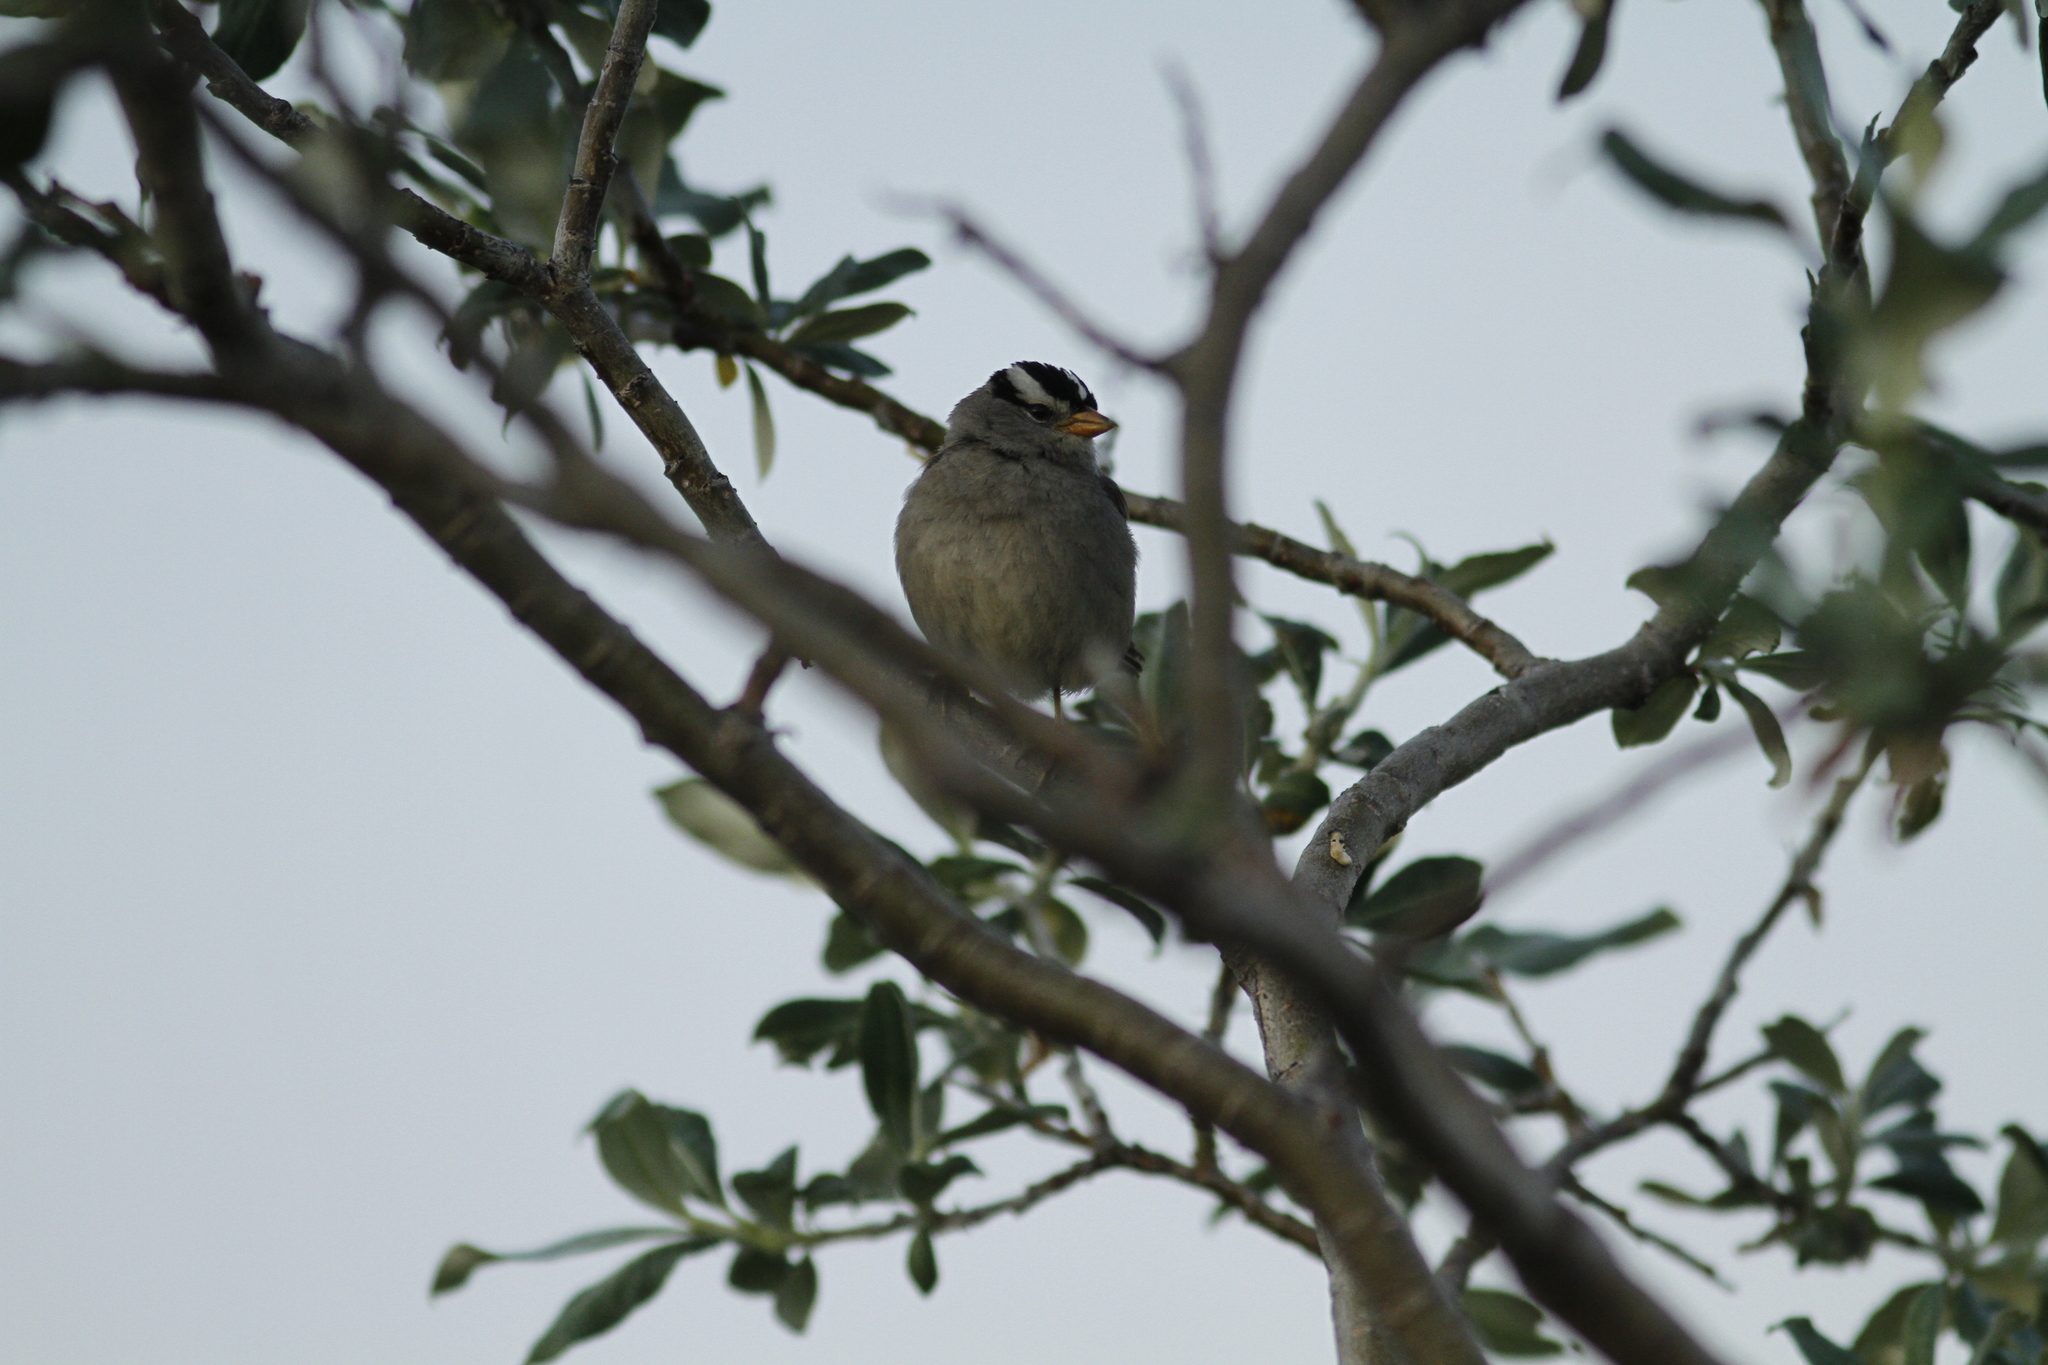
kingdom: Animalia
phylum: Chordata
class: Aves
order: Passeriformes
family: Passerellidae
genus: Zonotrichia
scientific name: Zonotrichia leucophrys
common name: White-crowned sparrow
